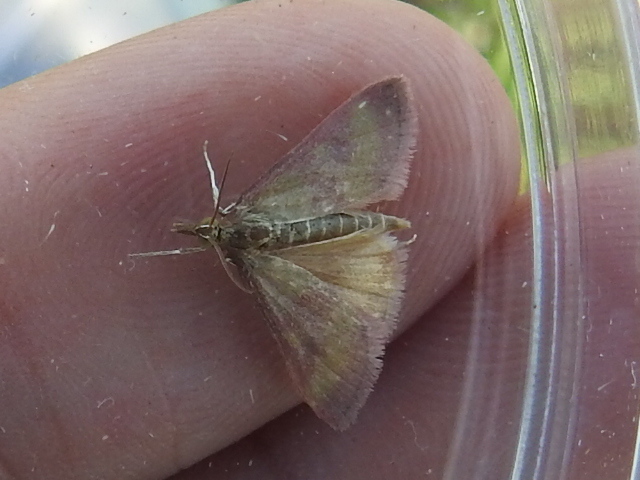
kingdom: Animalia
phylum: Arthropoda
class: Insecta
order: Lepidoptera
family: Crambidae
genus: Pyrausta
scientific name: Pyrausta laticlavia
